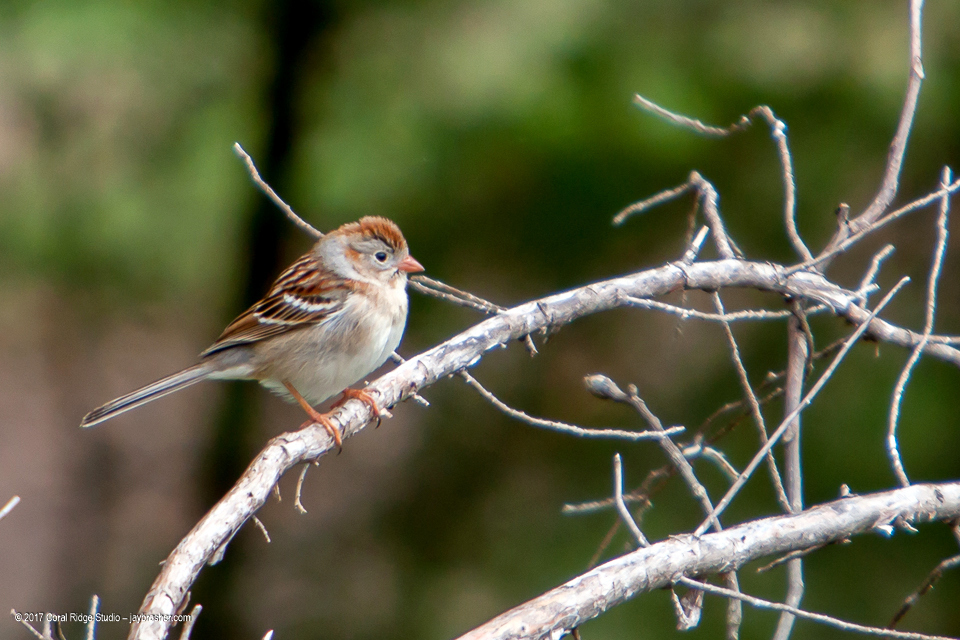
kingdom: Animalia
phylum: Chordata
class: Aves
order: Passeriformes
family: Passerellidae
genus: Spizella
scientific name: Spizella pusilla
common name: Field sparrow
